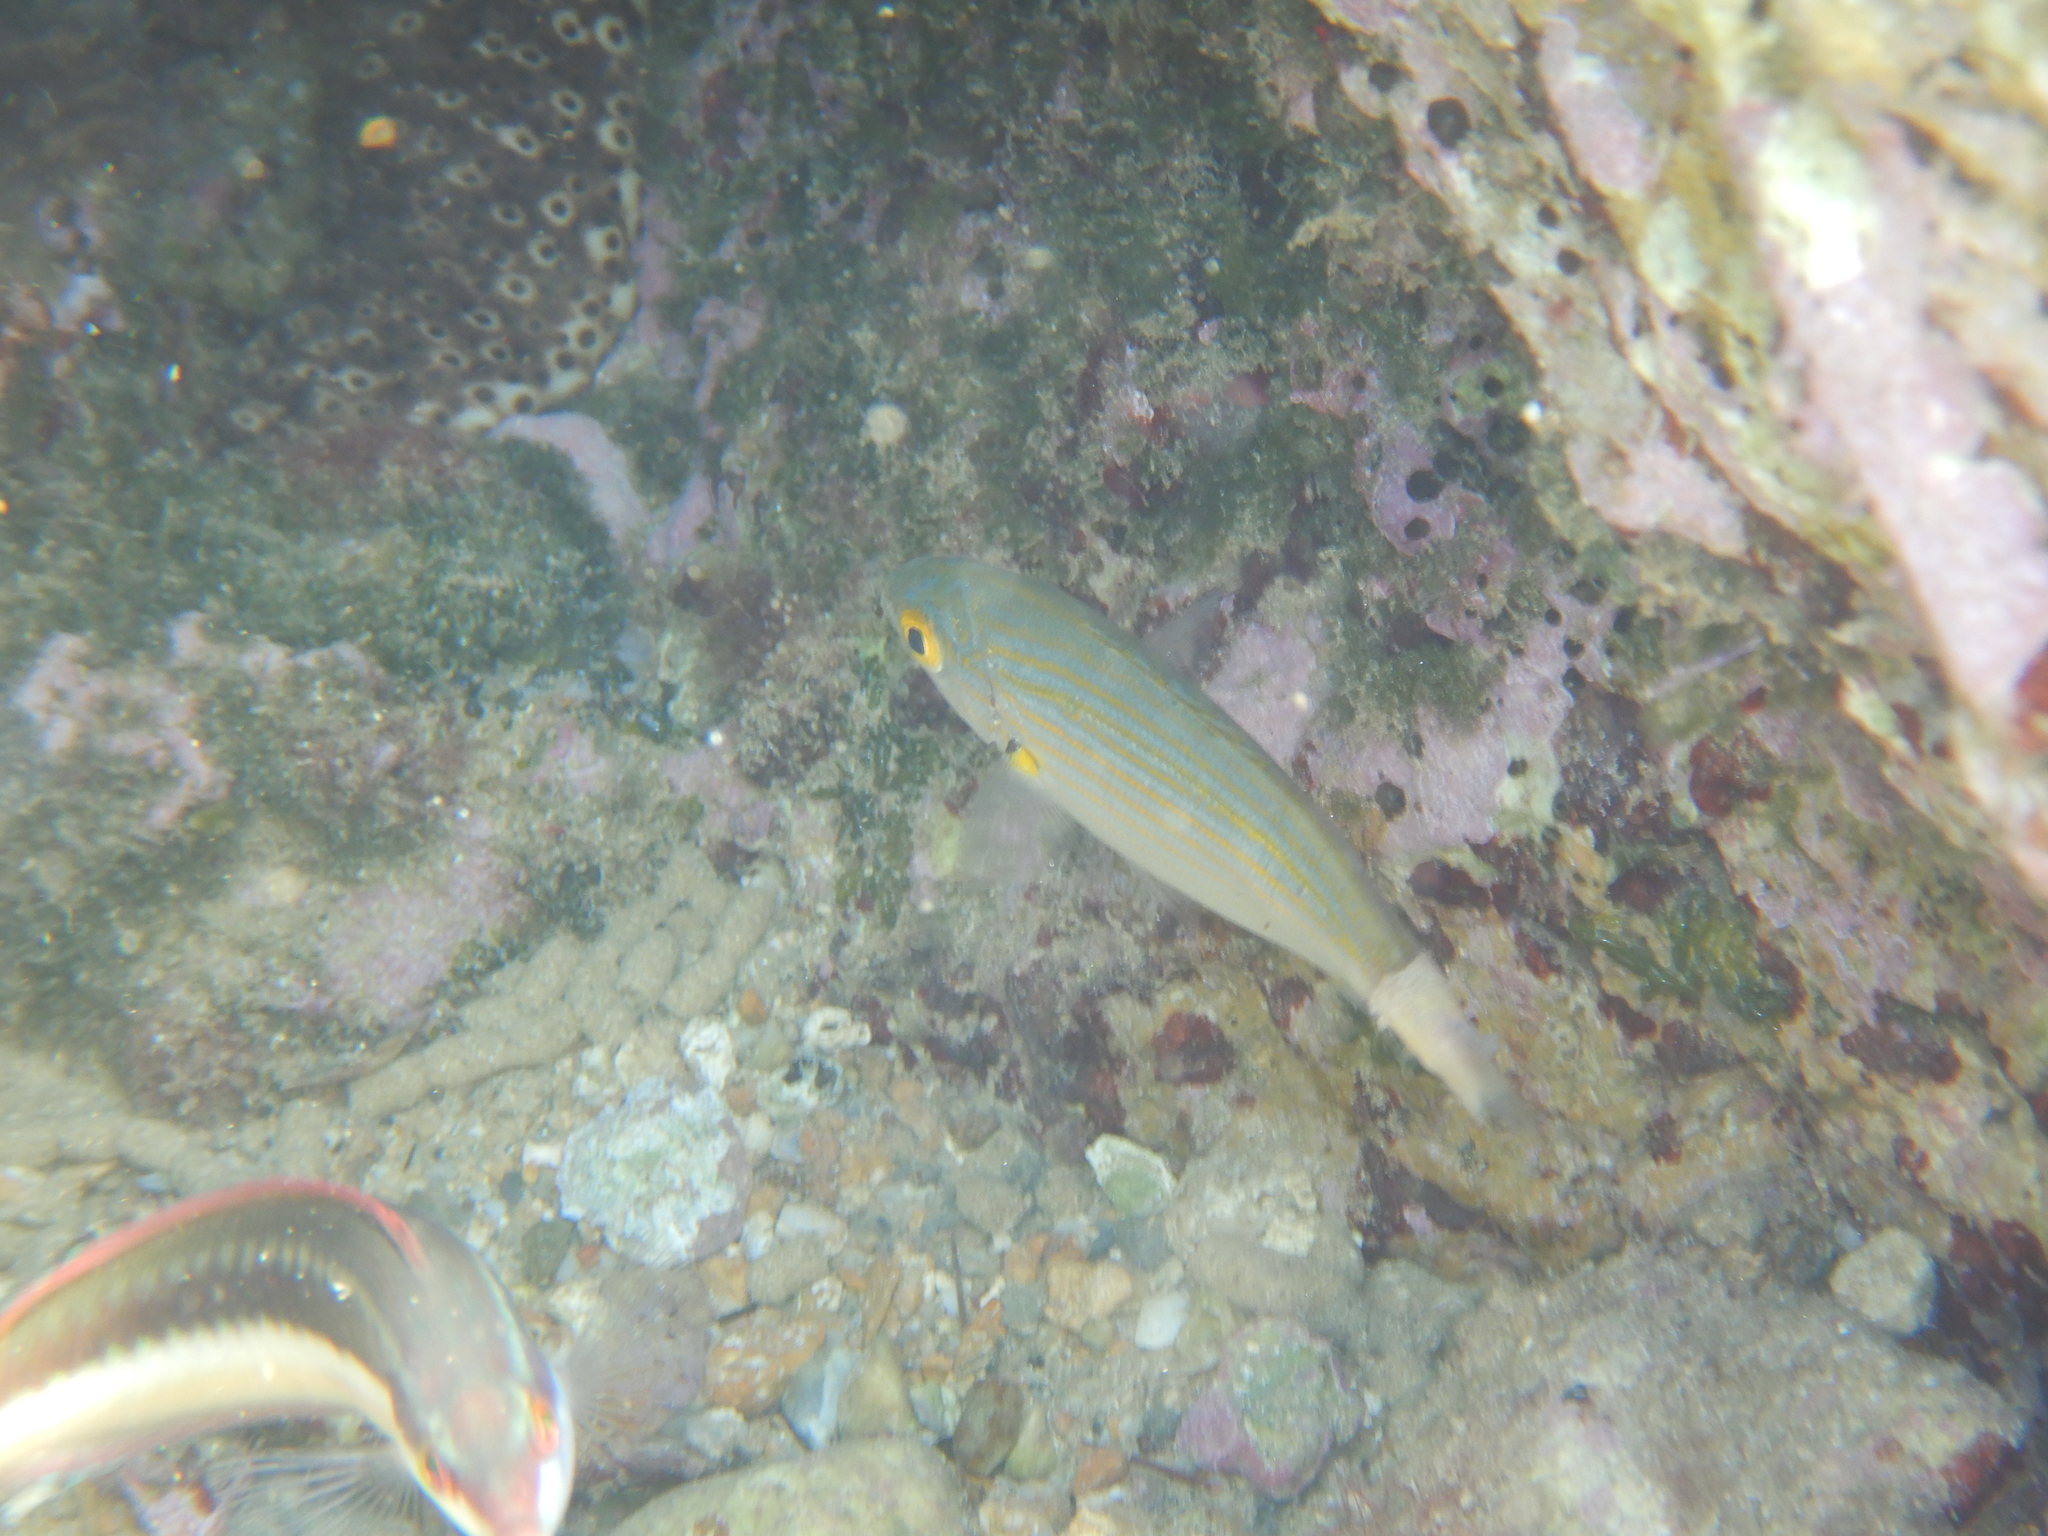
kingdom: Animalia
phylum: Chordata
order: Perciformes
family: Sparidae
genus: Sarpa
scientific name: Sarpa salpa
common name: Salema
